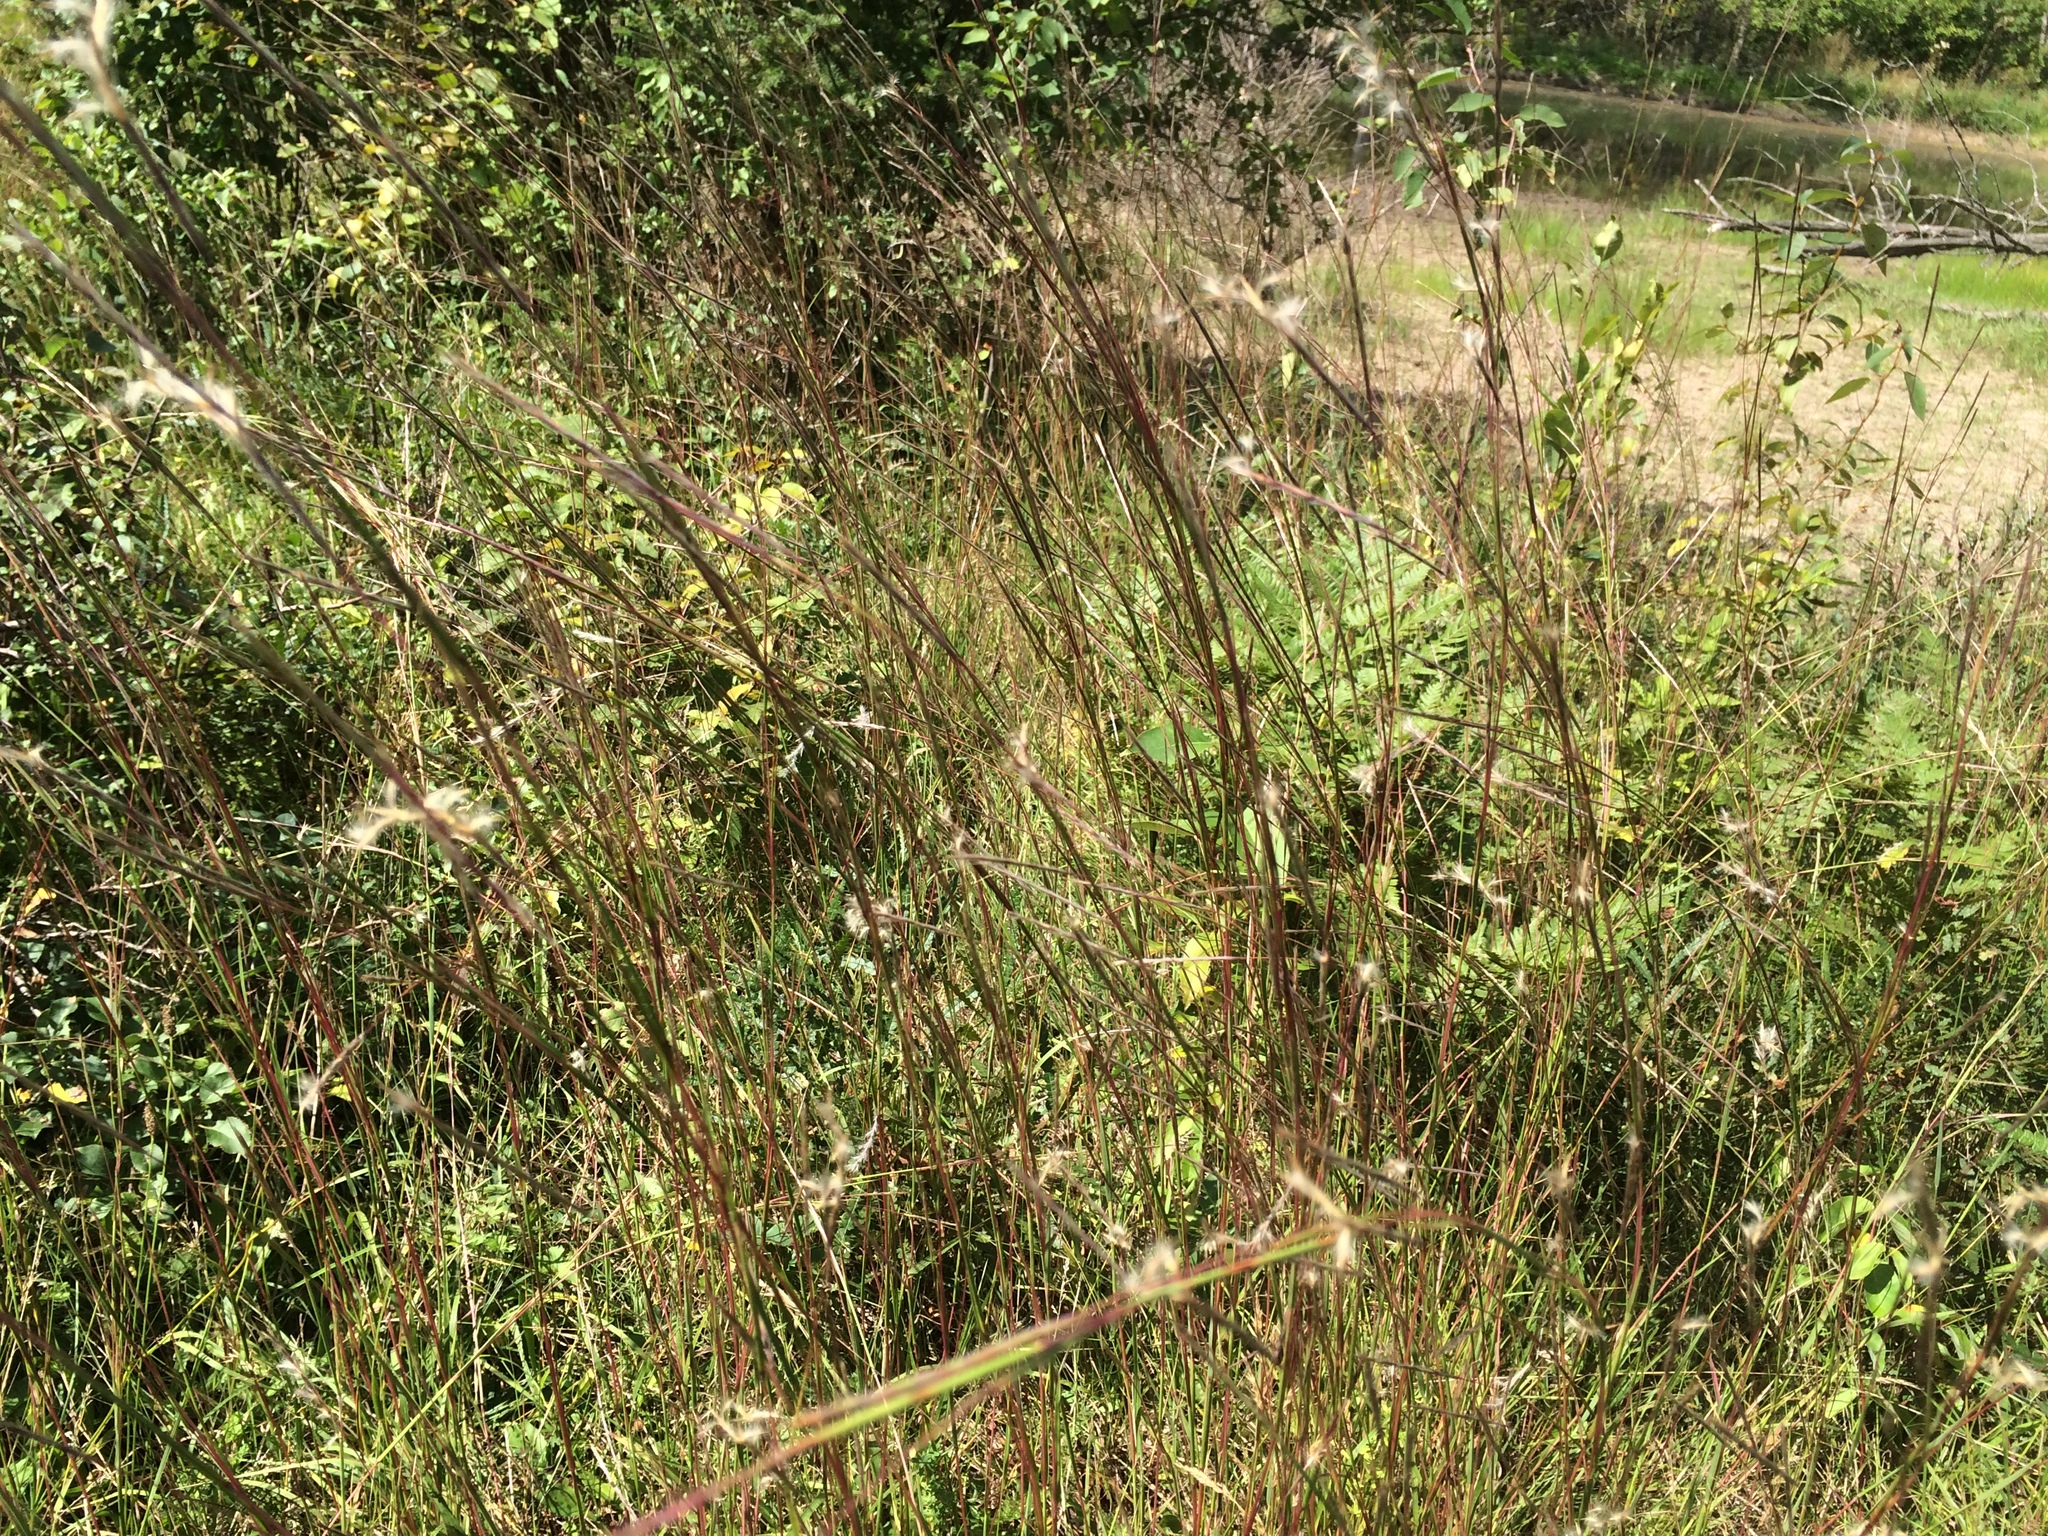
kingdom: Plantae
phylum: Tracheophyta
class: Liliopsida
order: Poales
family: Poaceae
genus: Schizachyrium
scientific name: Schizachyrium scoparium
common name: Little bluestem
